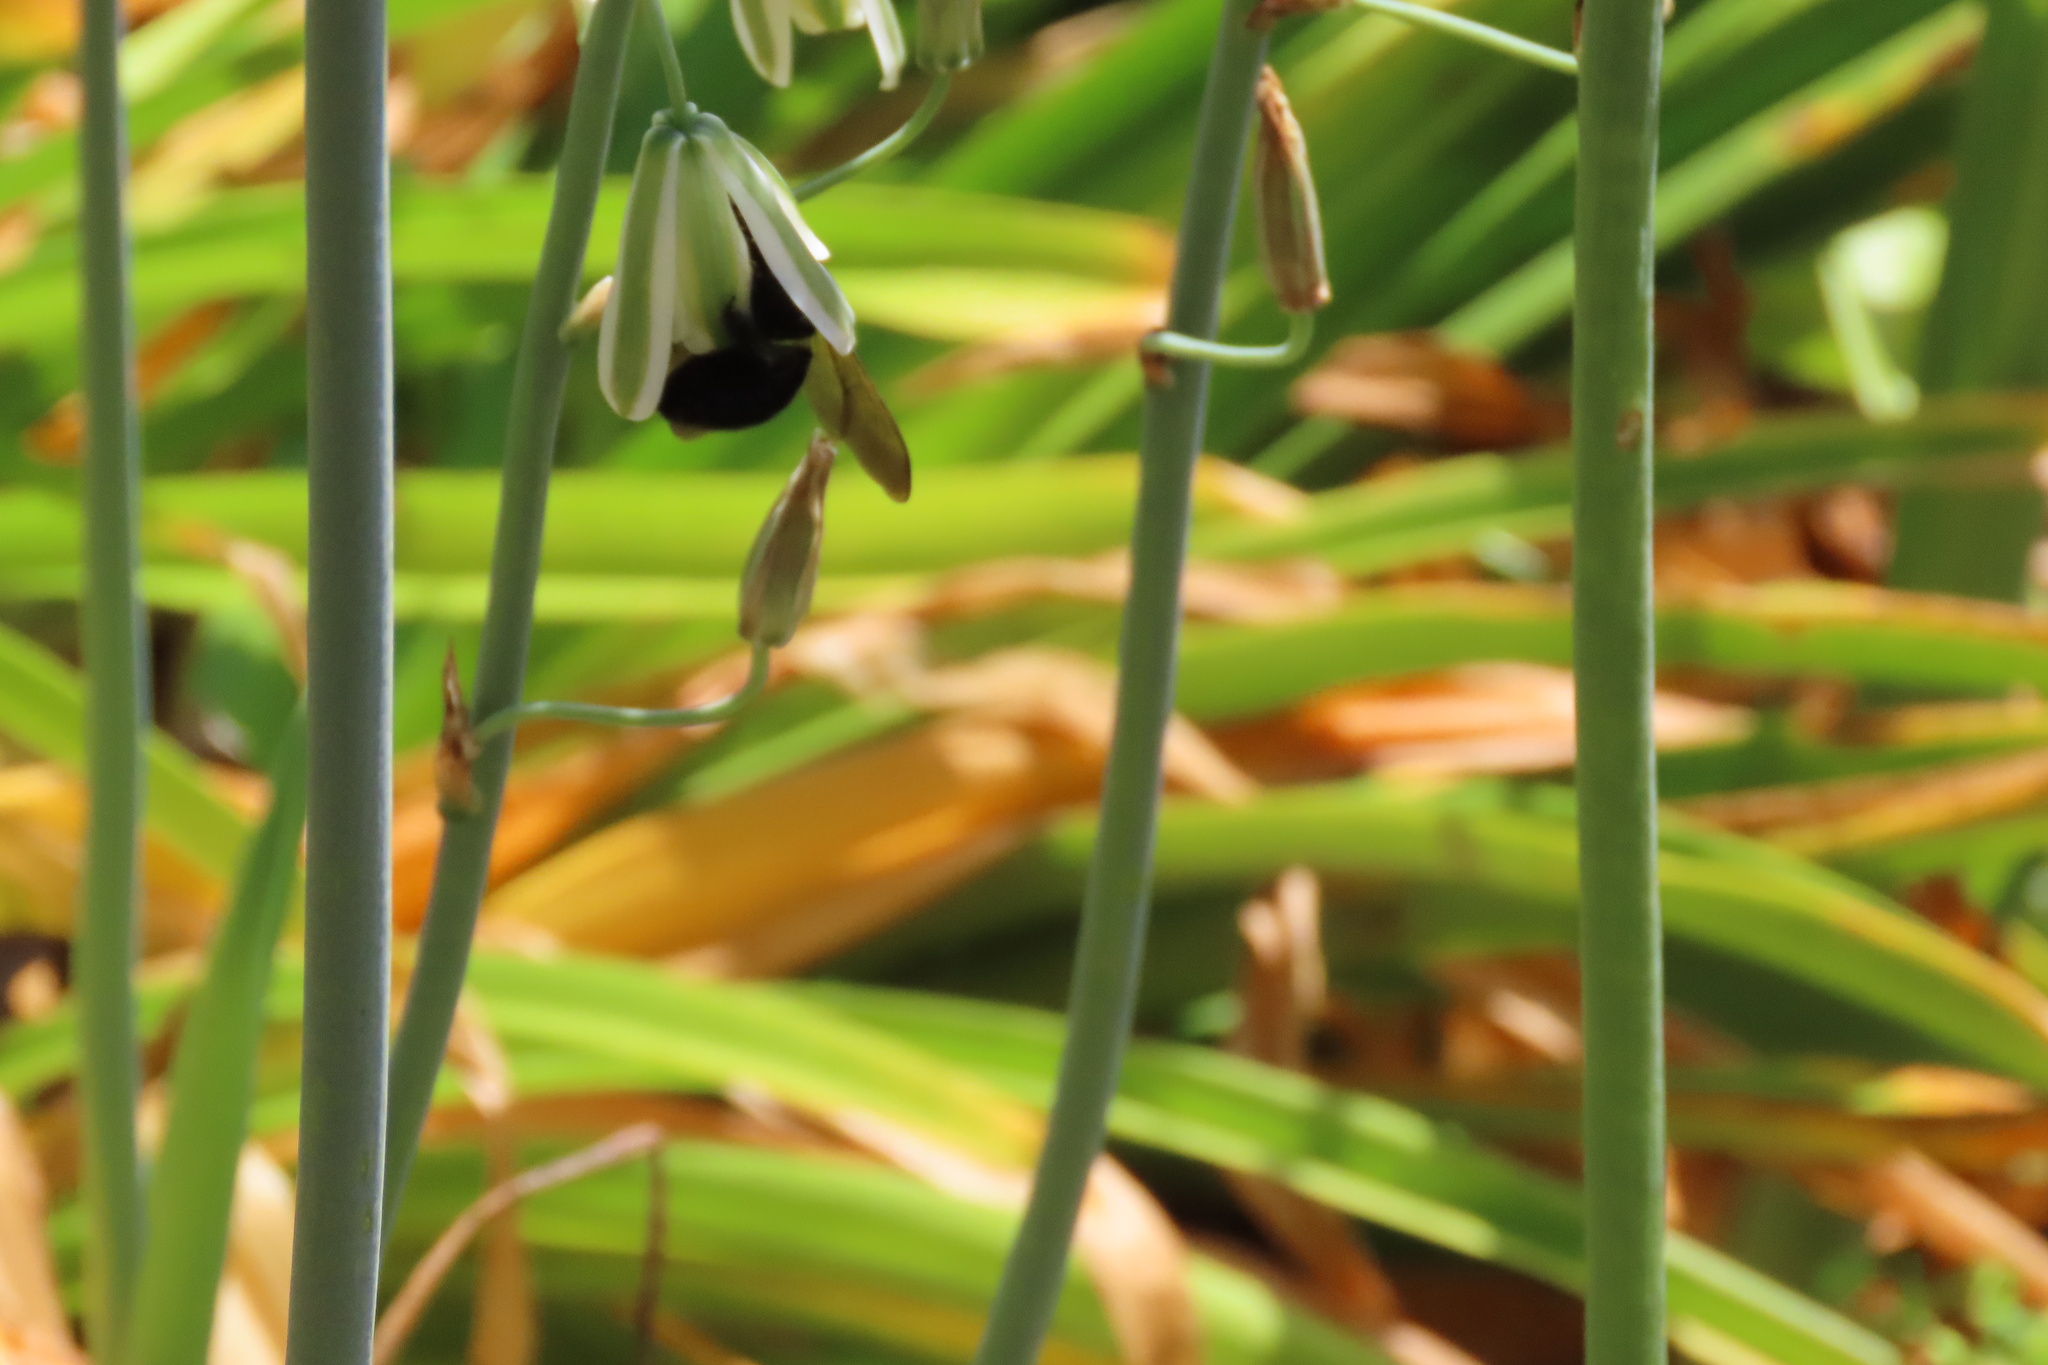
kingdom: Animalia
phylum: Arthropoda
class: Insecta
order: Hymenoptera
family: Apidae
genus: Xylocopa
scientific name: Xylocopa sonorina
